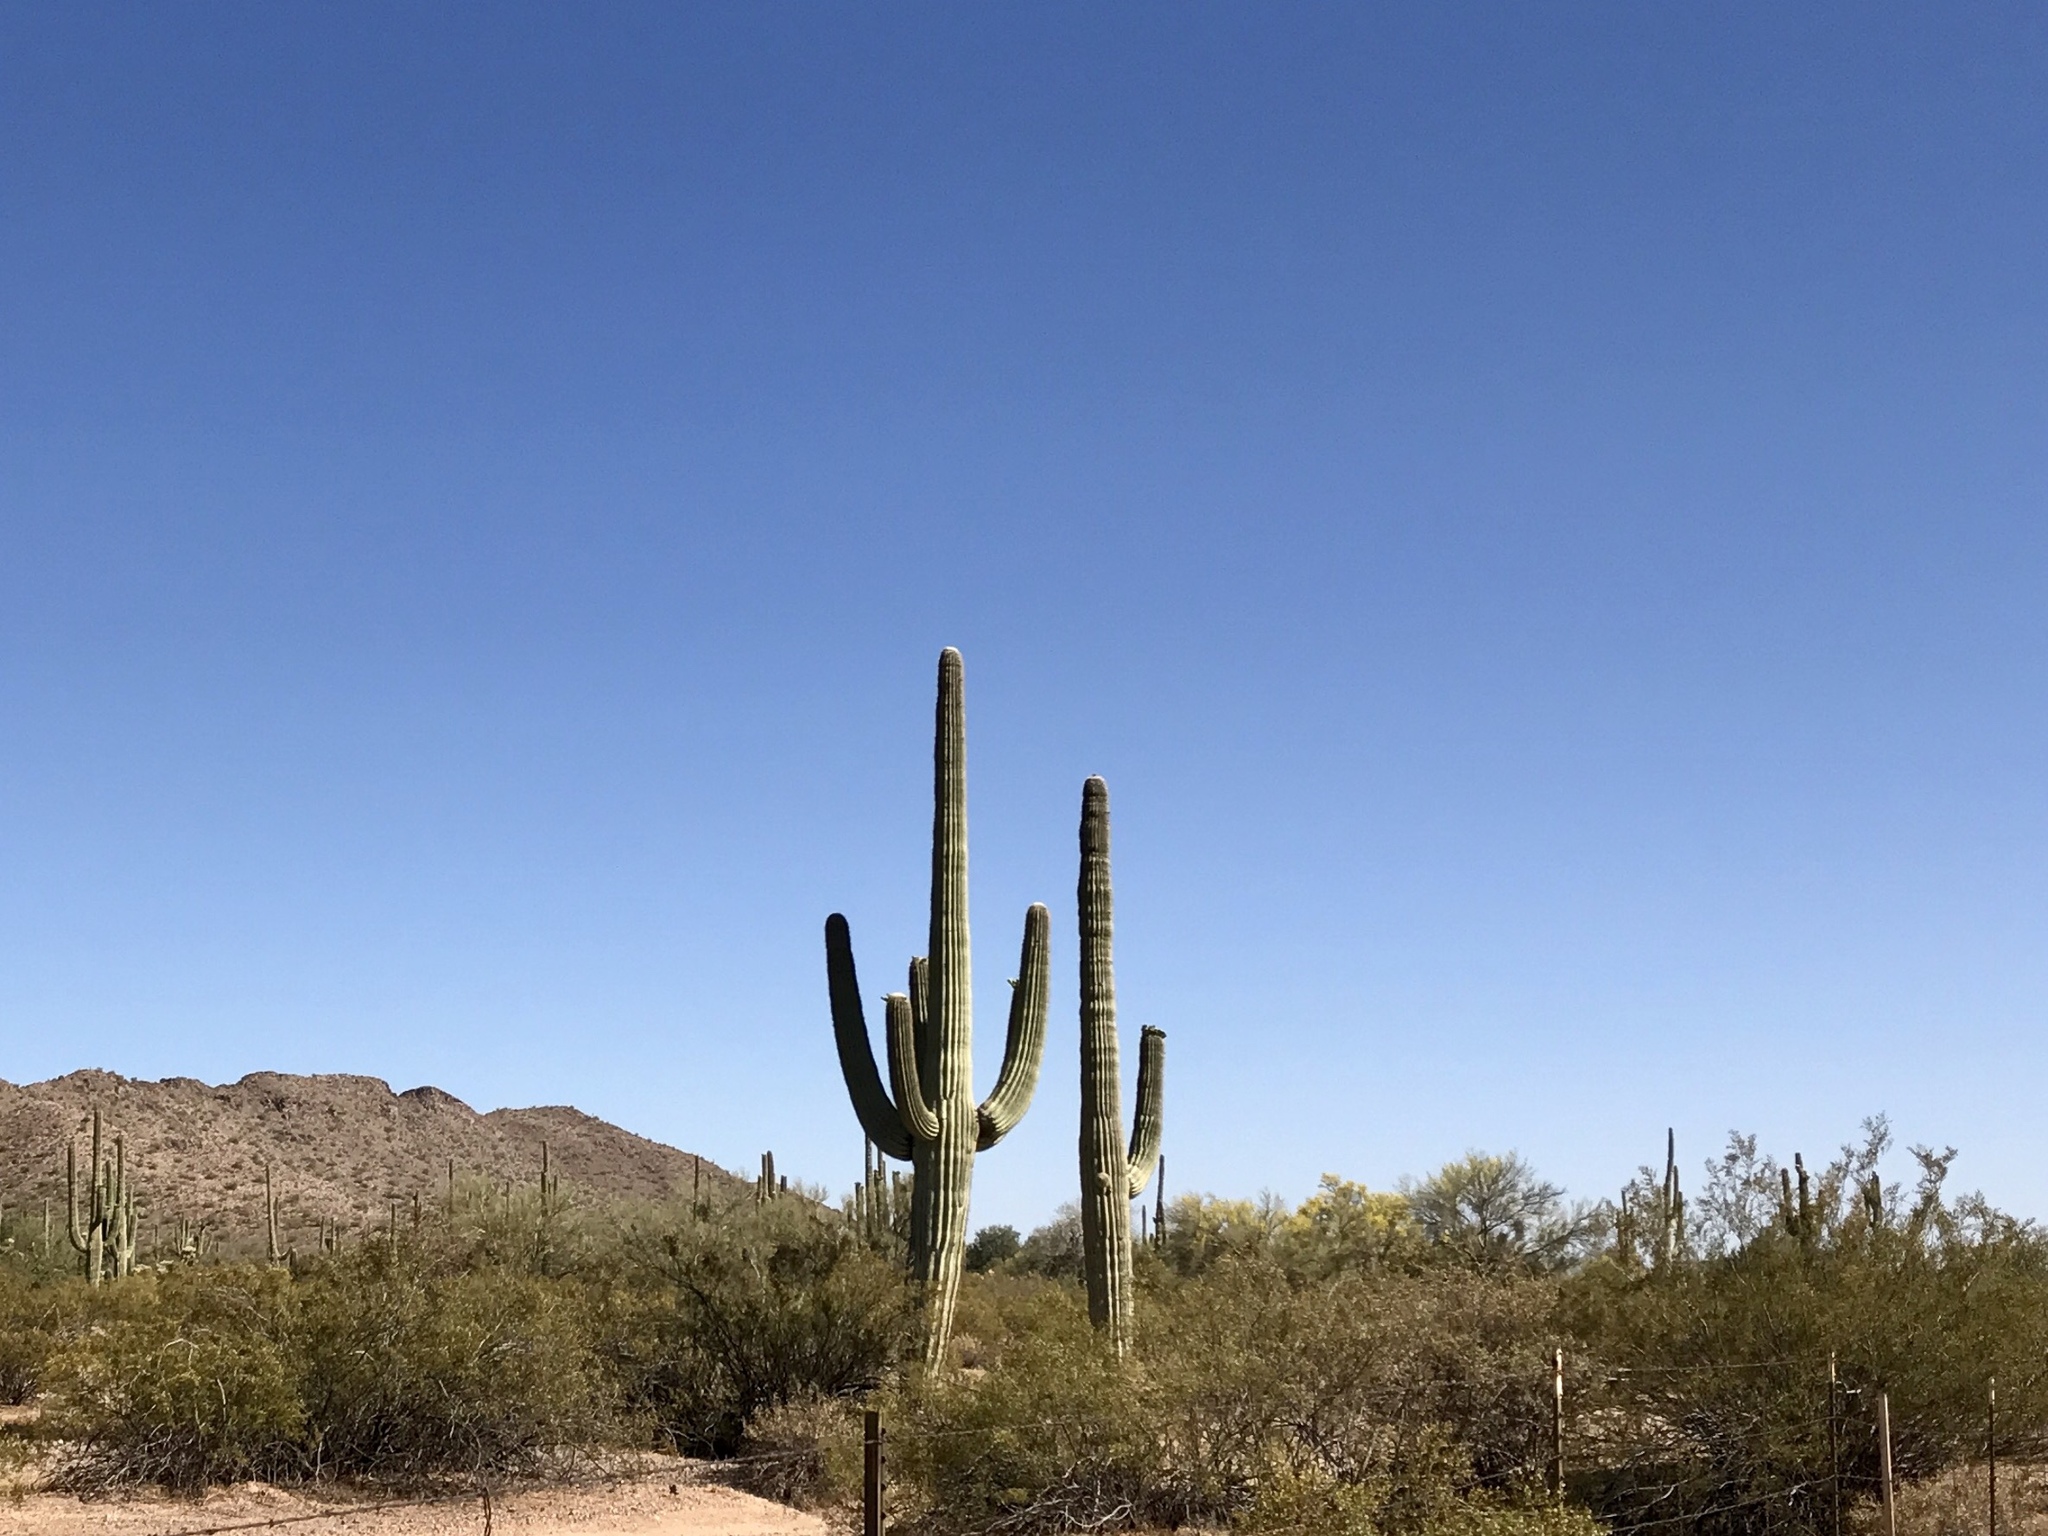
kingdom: Plantae
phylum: Tracheophyta
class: Magnoliopsida
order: Caryophyllales
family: Cactaceae
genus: Carnegiea
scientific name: Carnegiea gigantea
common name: Saguaro
